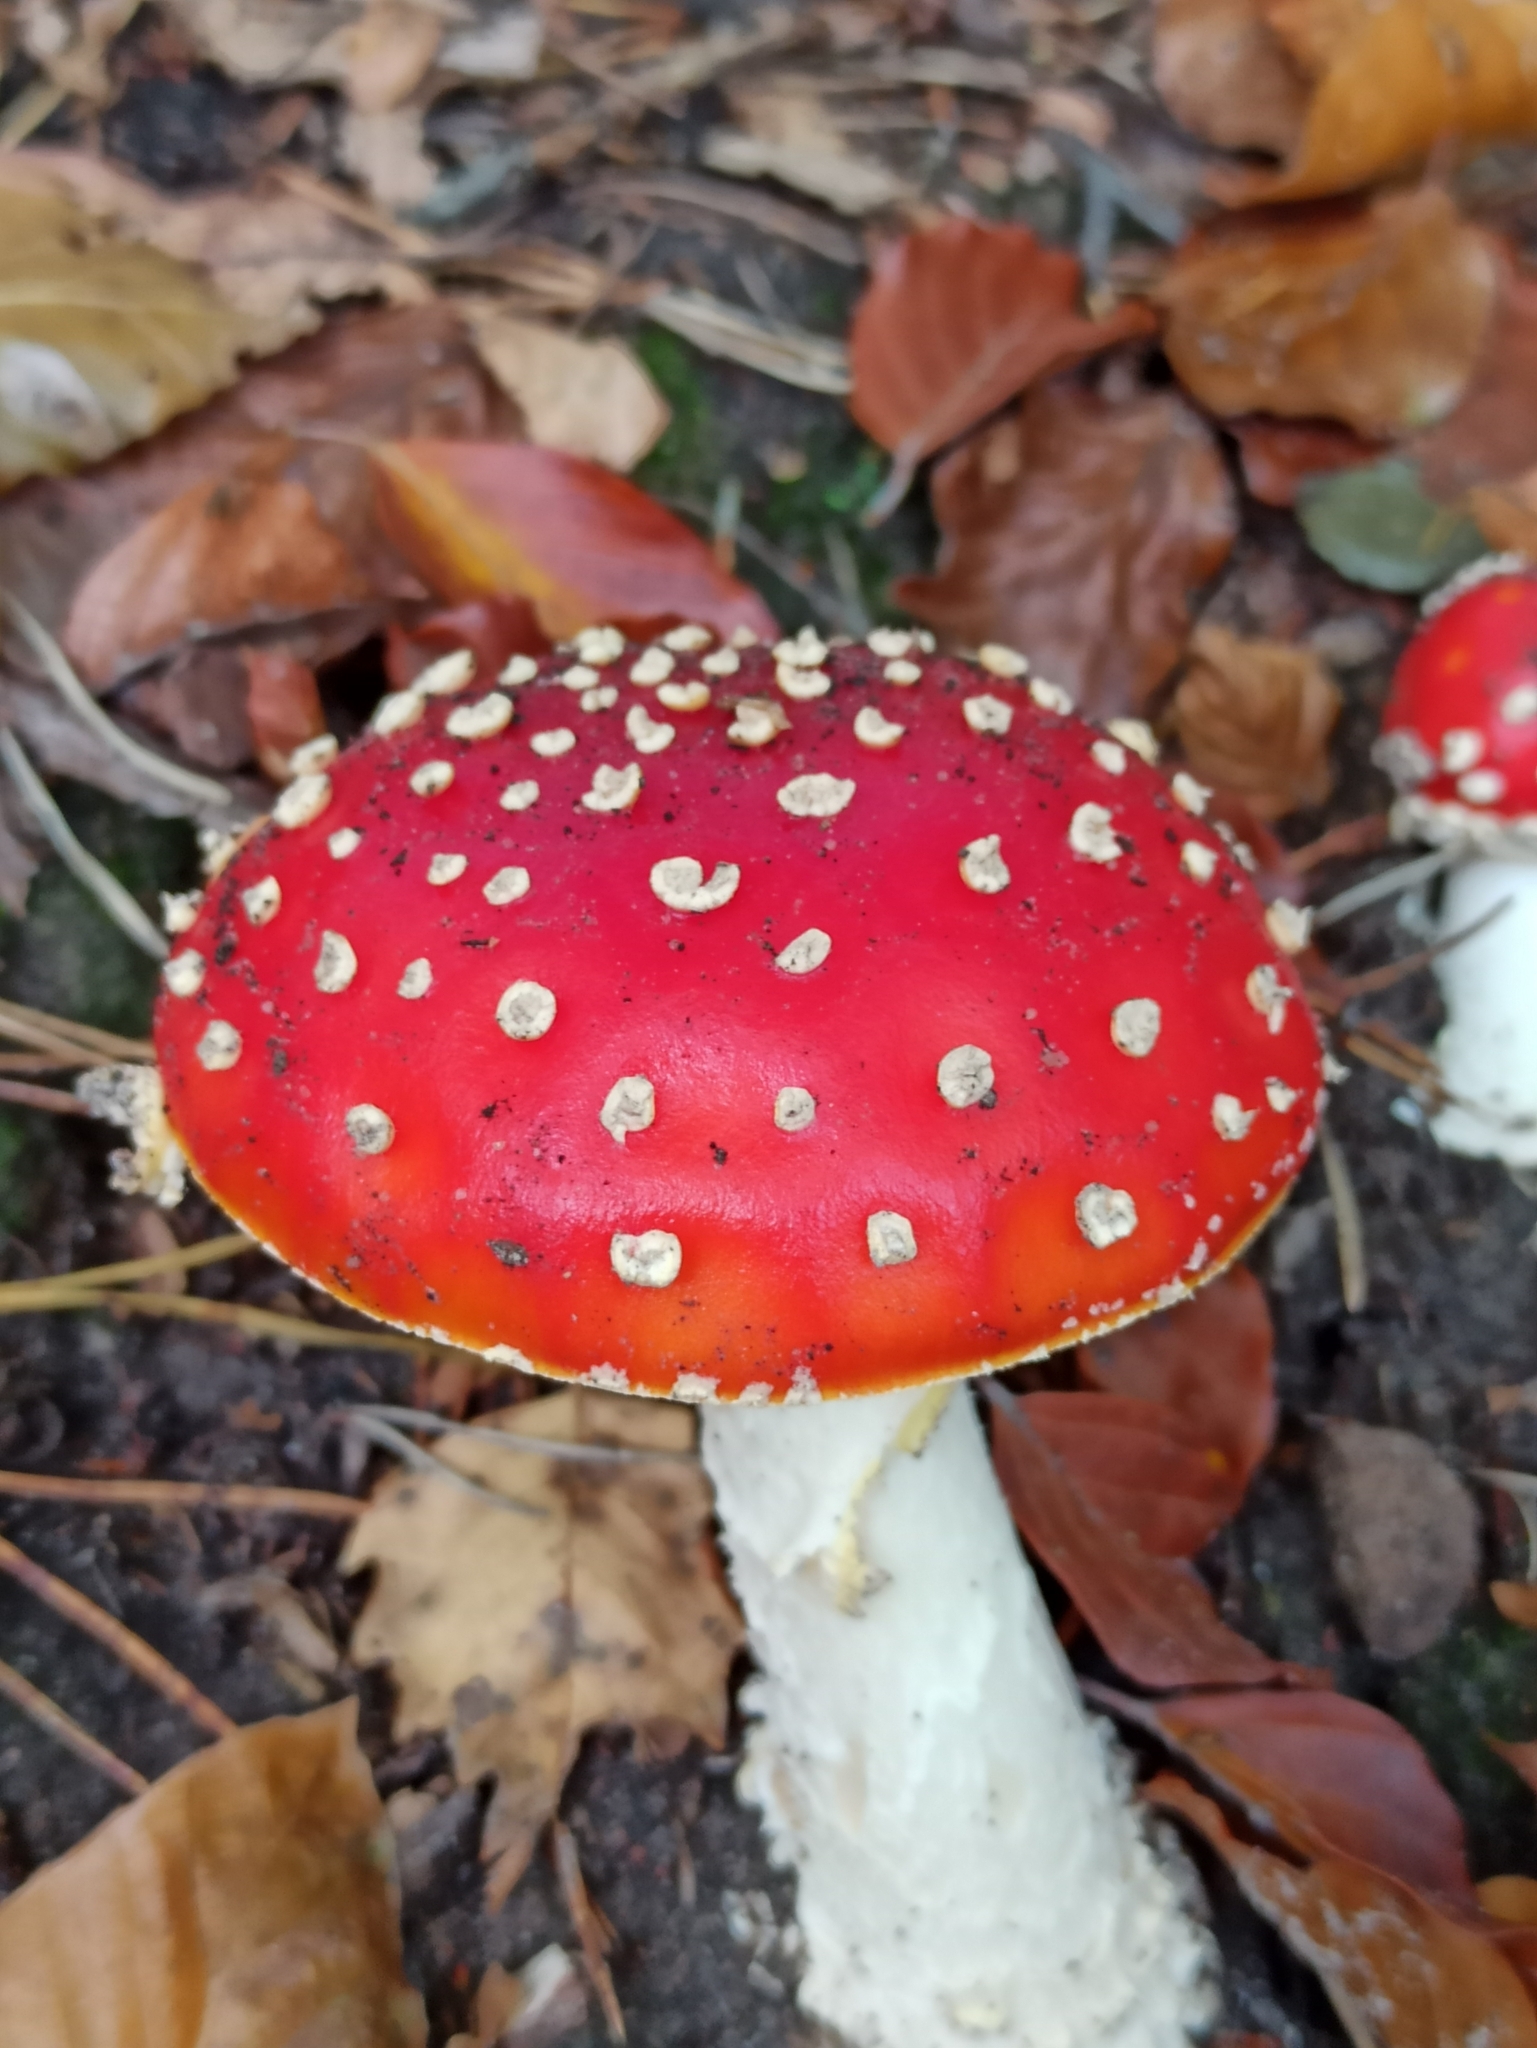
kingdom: Fungi
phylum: Basidiomycota
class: Agaricomycetes
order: Agaricales
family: Amanitaceae
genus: Amanita
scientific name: Amanita muscaria
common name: Fly agaric
